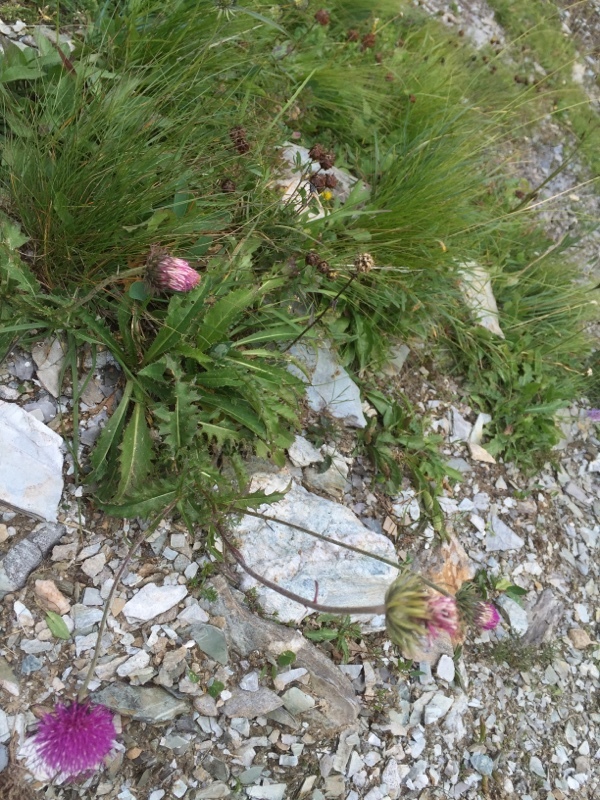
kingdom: Plantae
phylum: Tracheophyta
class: Magnoliopsida
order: Asterales
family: Asteraceae
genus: Carduus
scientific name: Carduus defloratus
